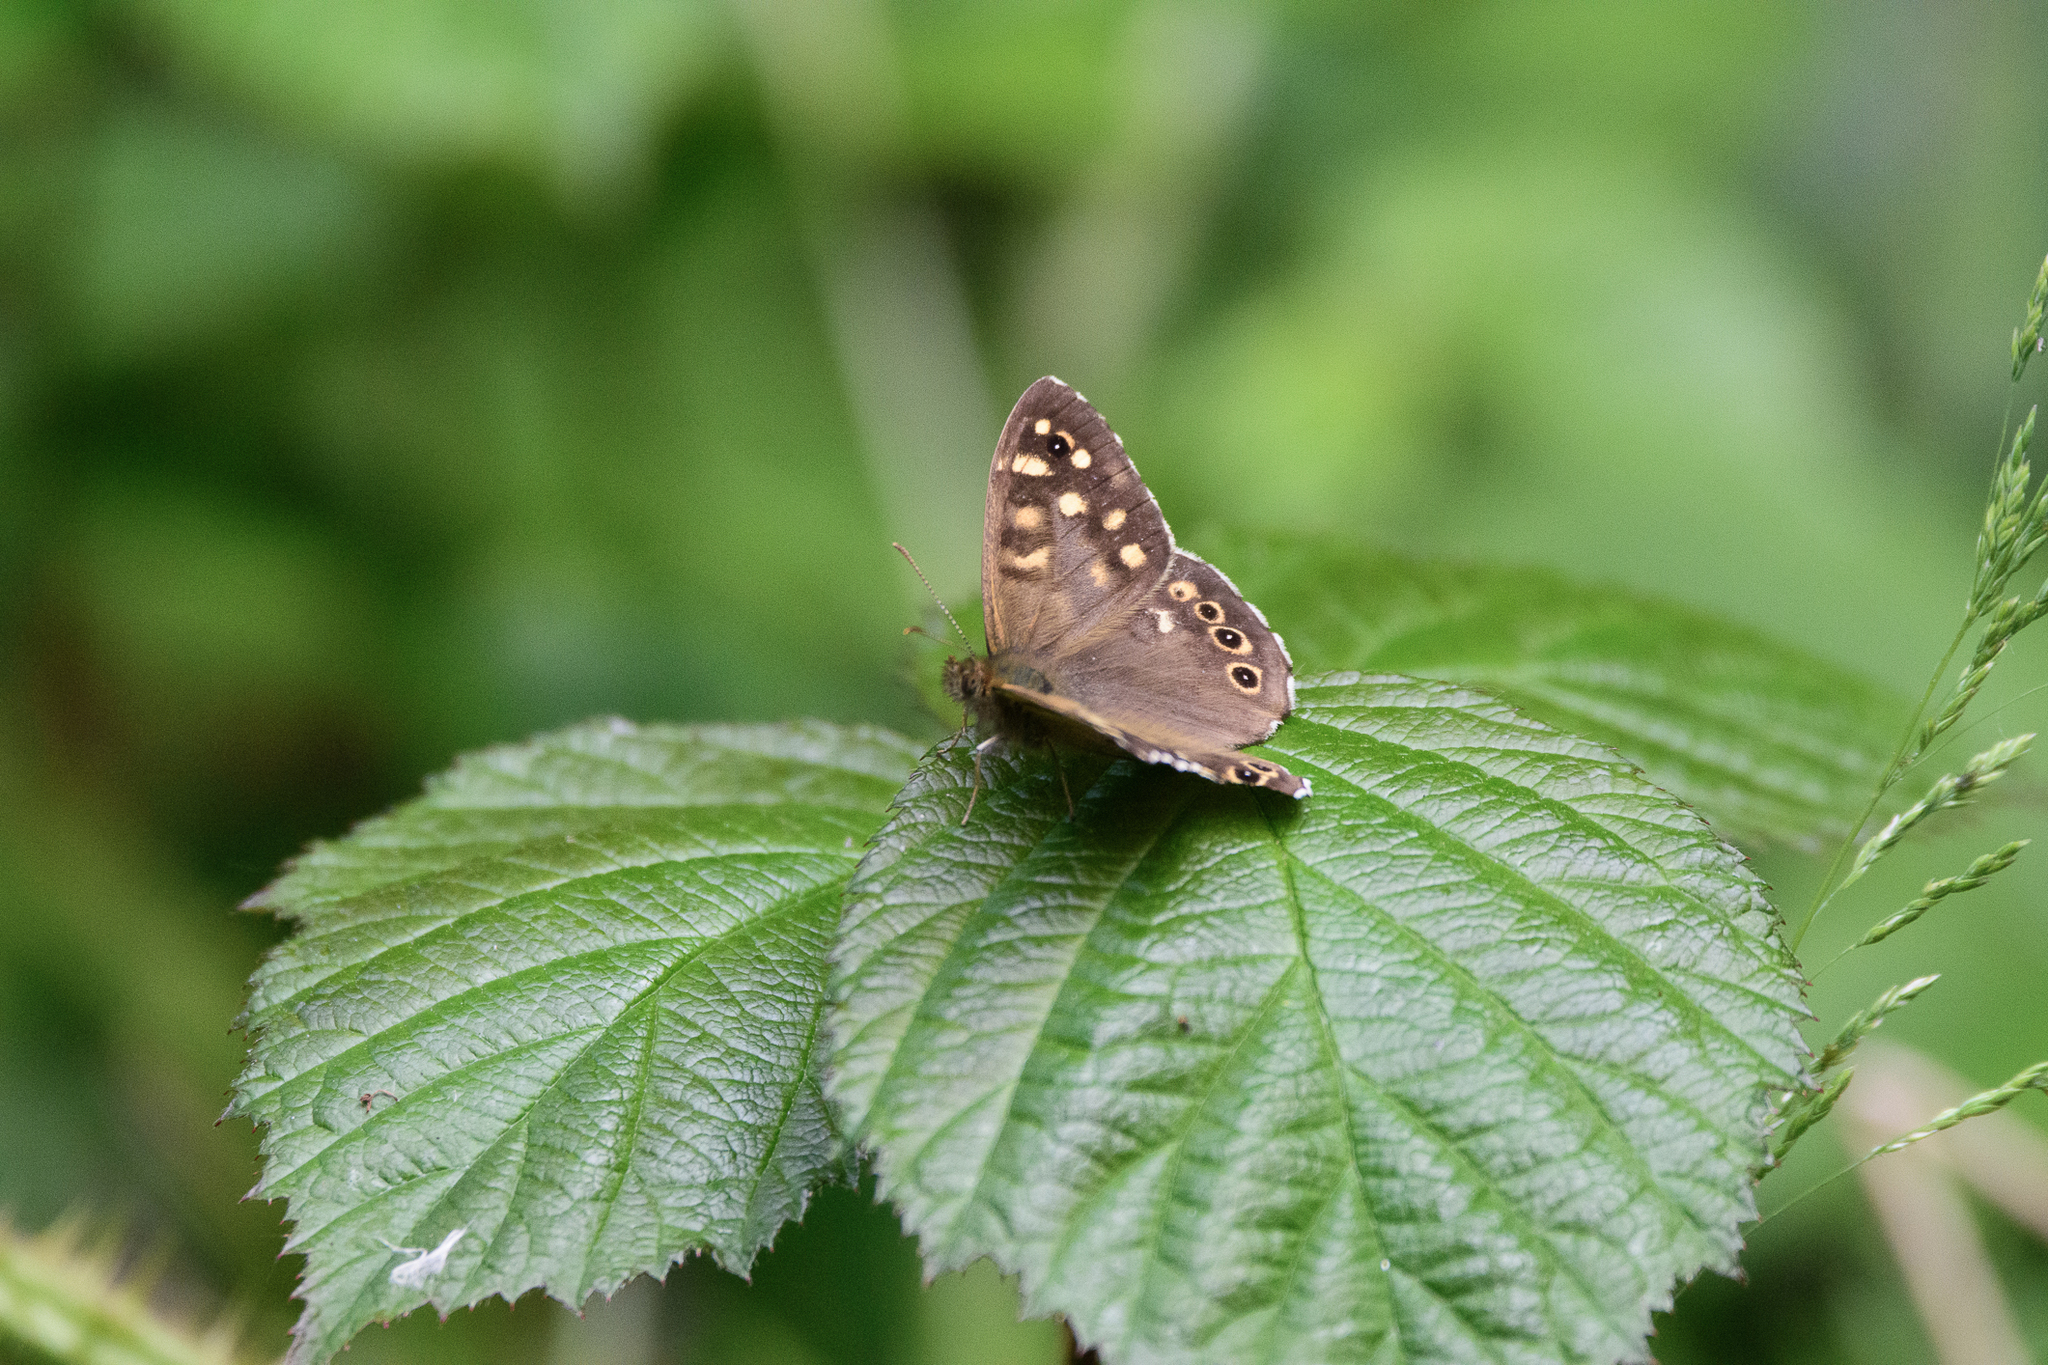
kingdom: Animalia
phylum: Arthropoda
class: Insecta
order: Lepidoptera
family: Nymphalidae
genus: Pararge
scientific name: Pararge aegeria
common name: Speckled wood
